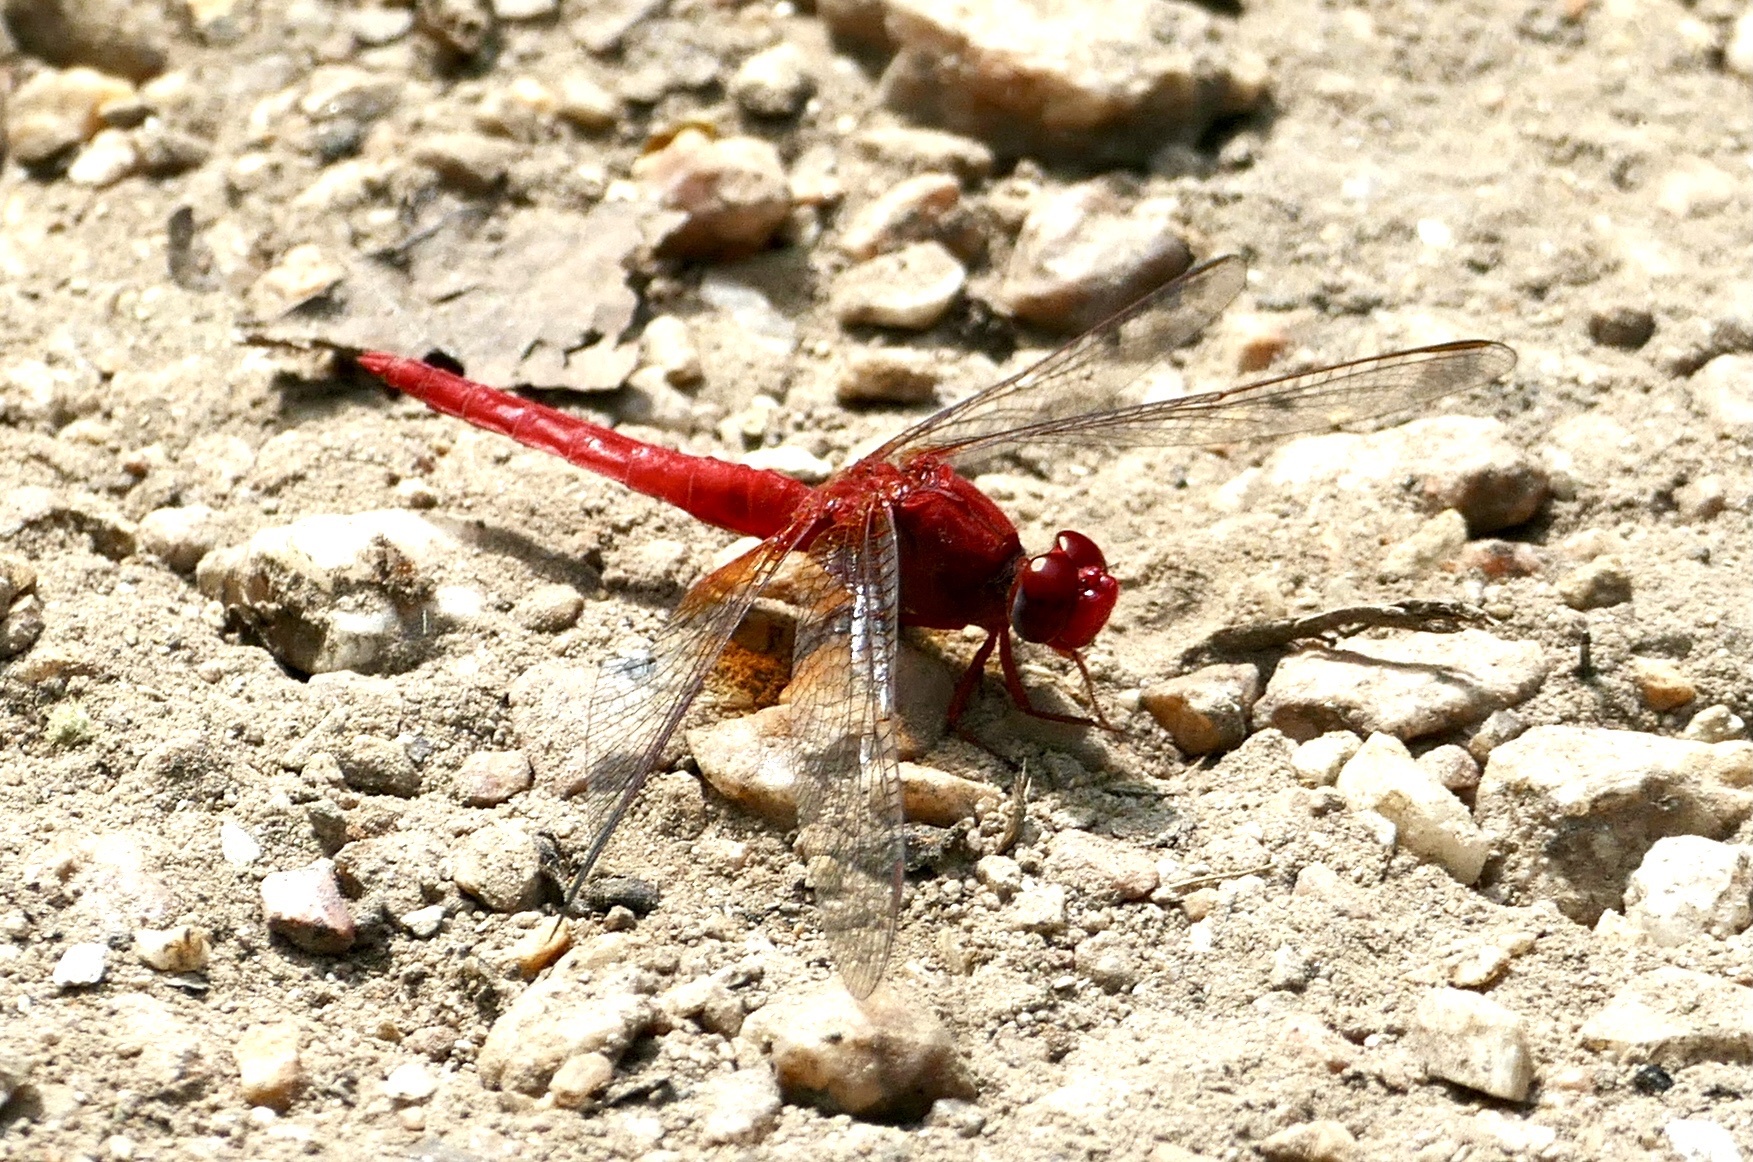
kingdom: Animalia
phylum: Arthropoda
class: Insecta
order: Odonata
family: Libellulidae
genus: Crocothemis
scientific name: Crocothemis erythraea
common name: Scarlet dragonfly
